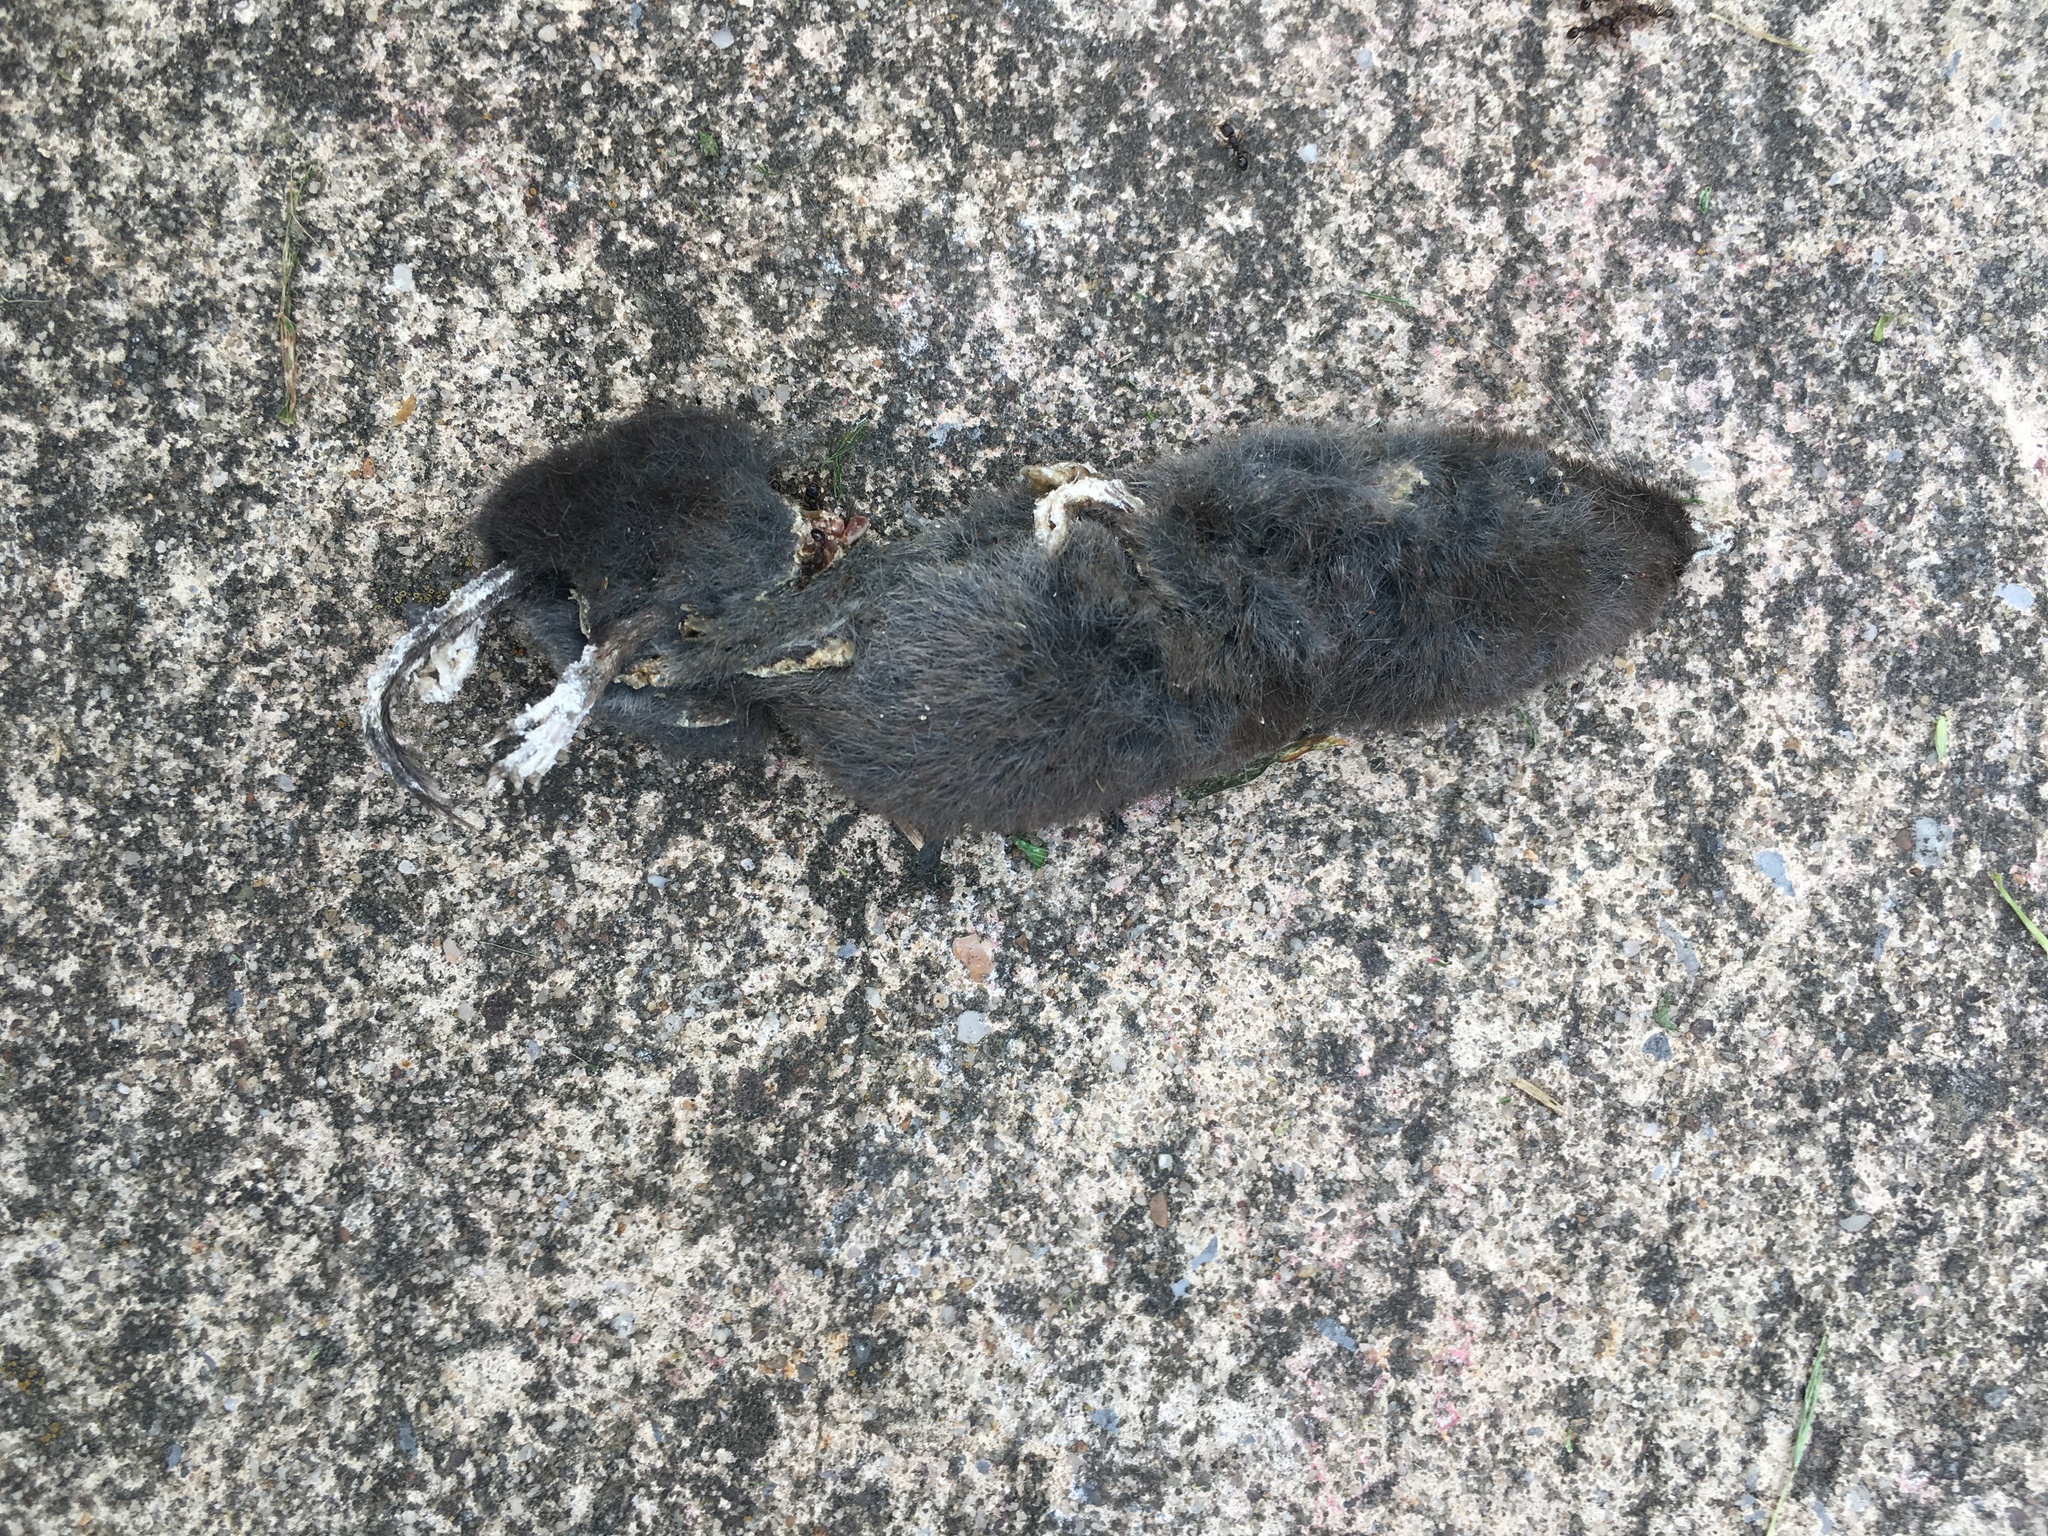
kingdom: Animalia
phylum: Chordata
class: Mammalia
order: Soricomorpha
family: Soricidae
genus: Blarina
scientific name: Blarina brevicauda
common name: Northern short-tailed shrew
